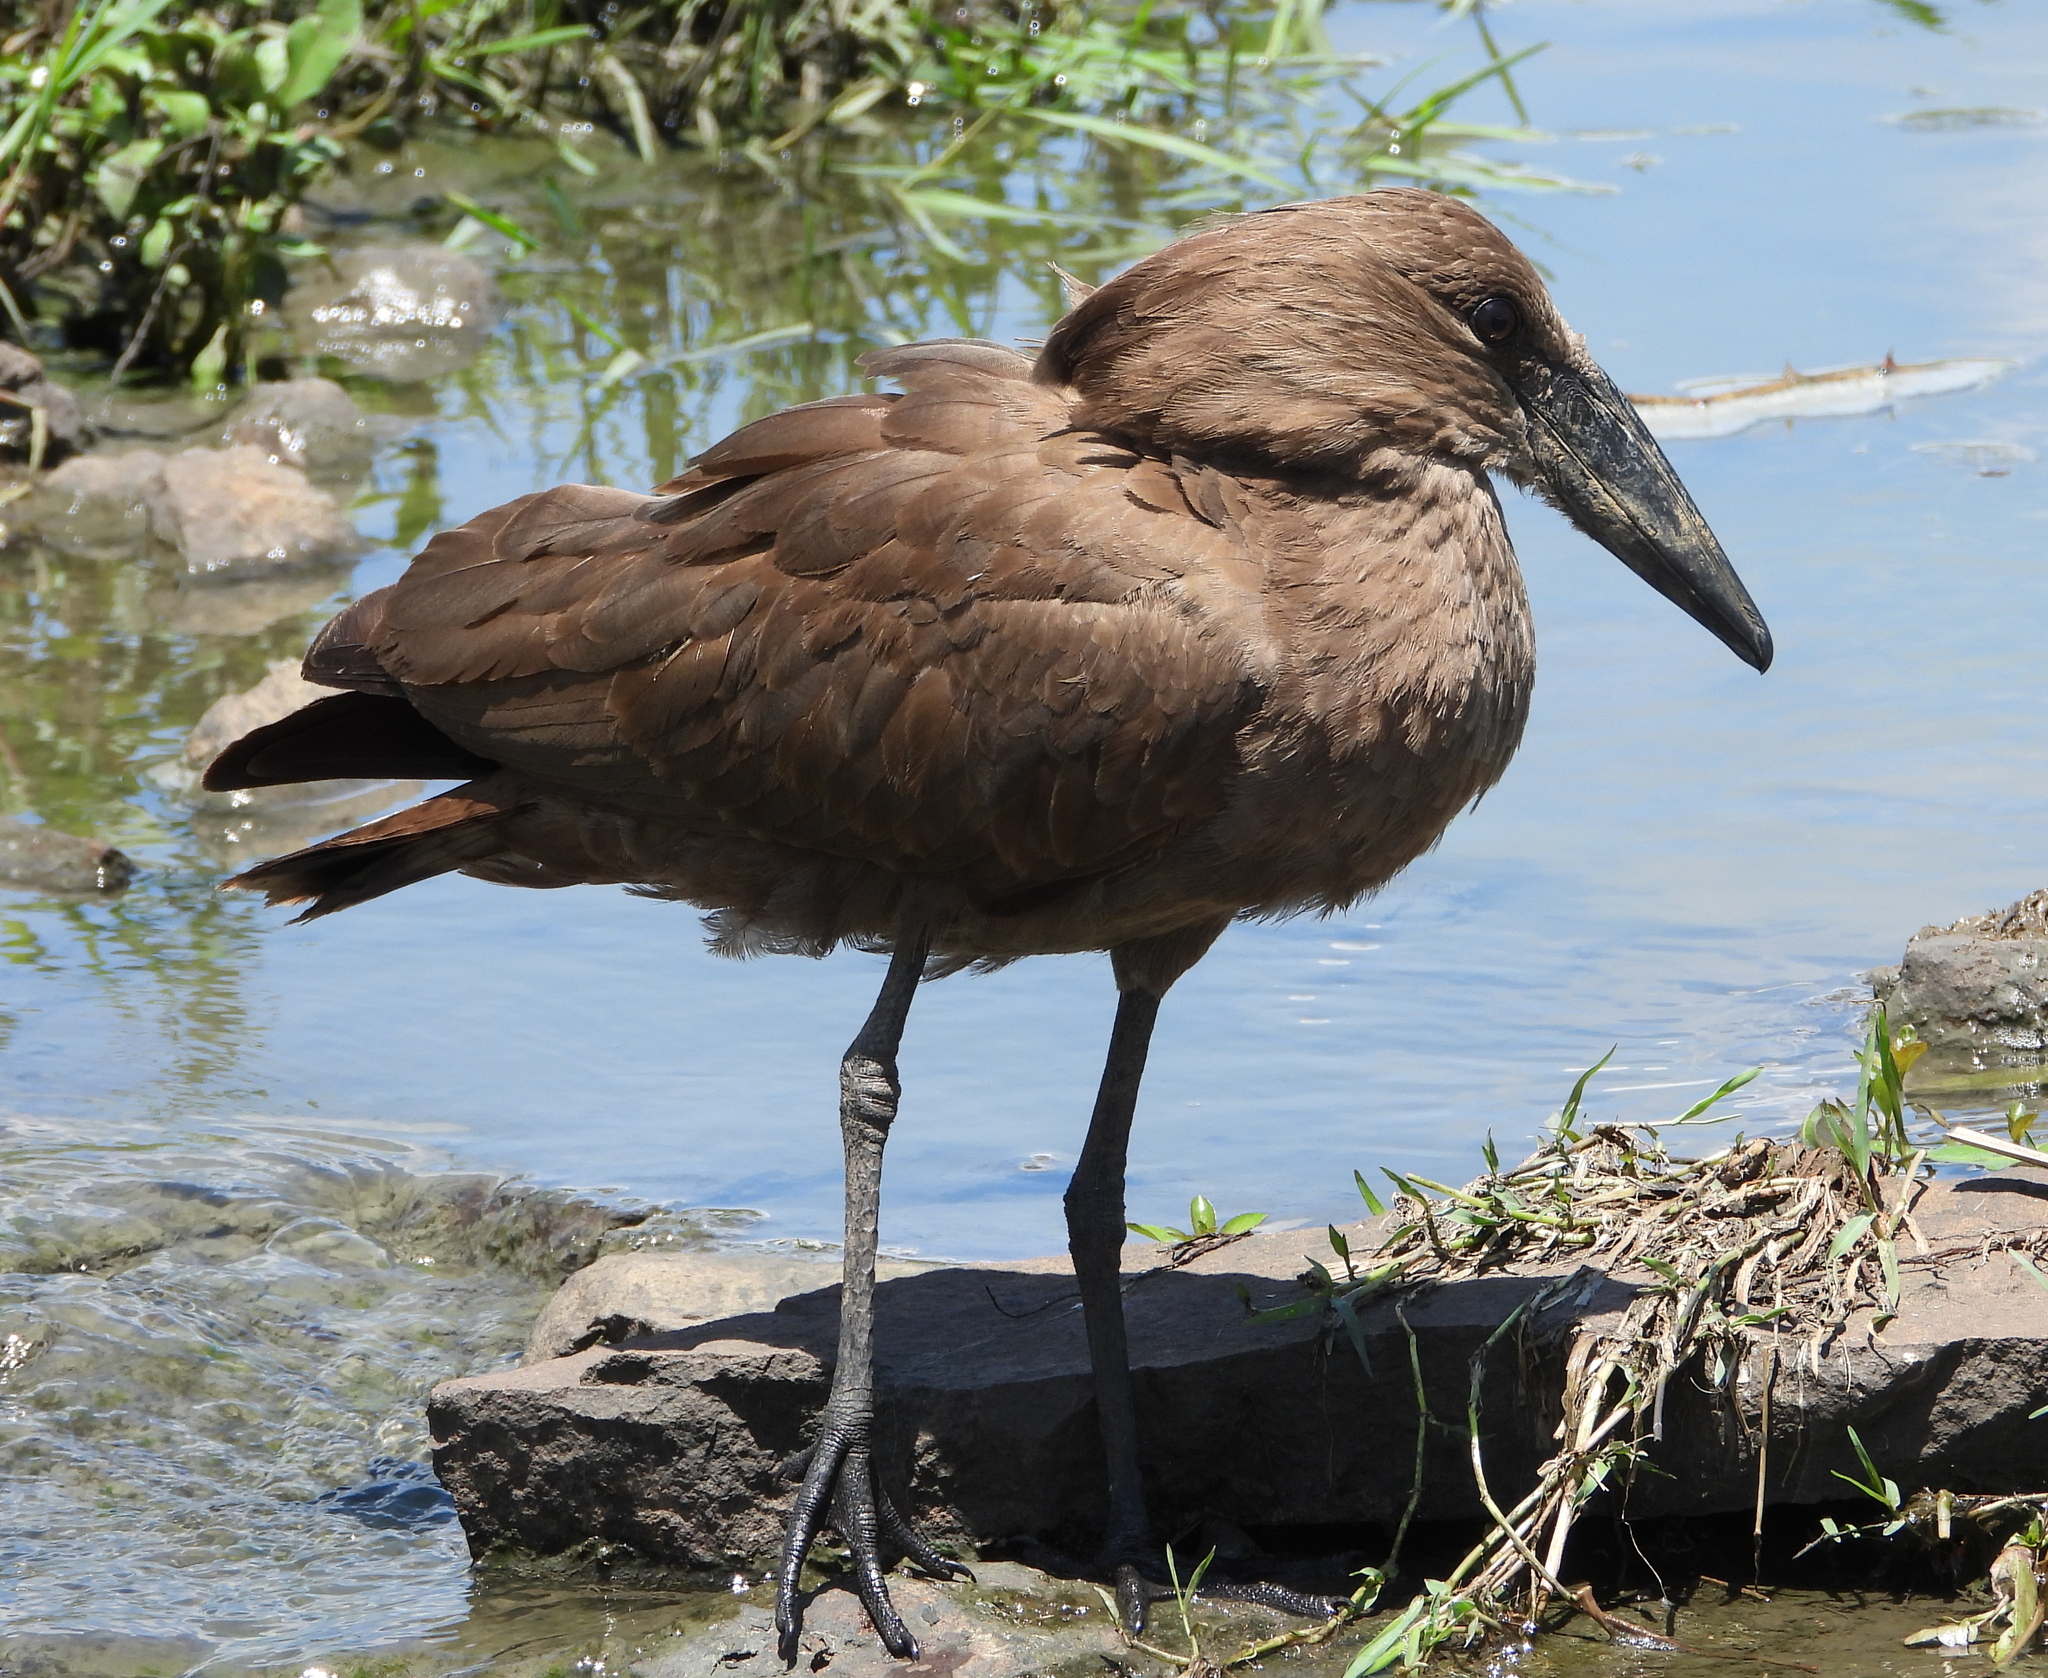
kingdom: Animalia
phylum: Chordata
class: Aves
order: Pelecaniformes
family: Scopidae
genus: Scopus
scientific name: Scopus umbretta
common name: Hamerkop
